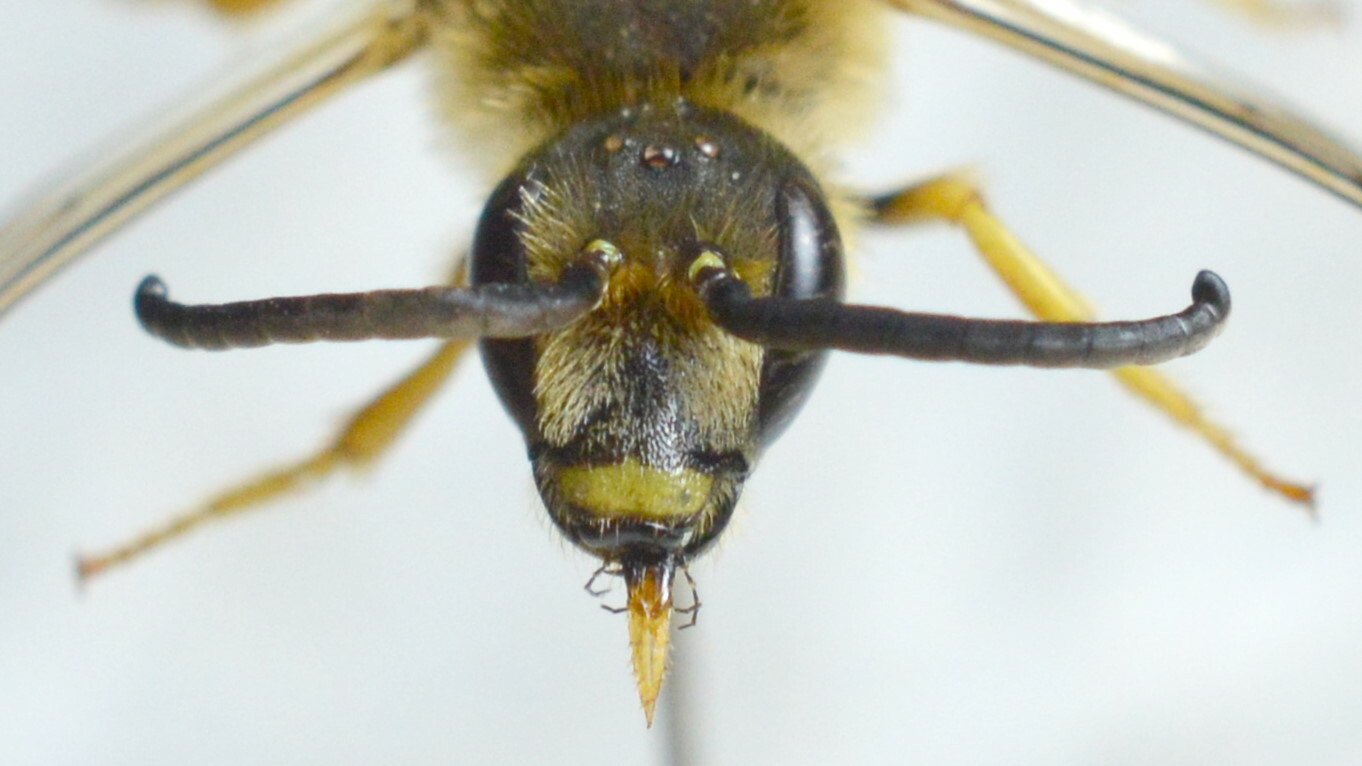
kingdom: Animalia
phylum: Arthropoda
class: Insecta
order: Hymenoptera
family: Halictidae
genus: Halictus
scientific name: Halictus scabiosae
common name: Great banded furrow bee
